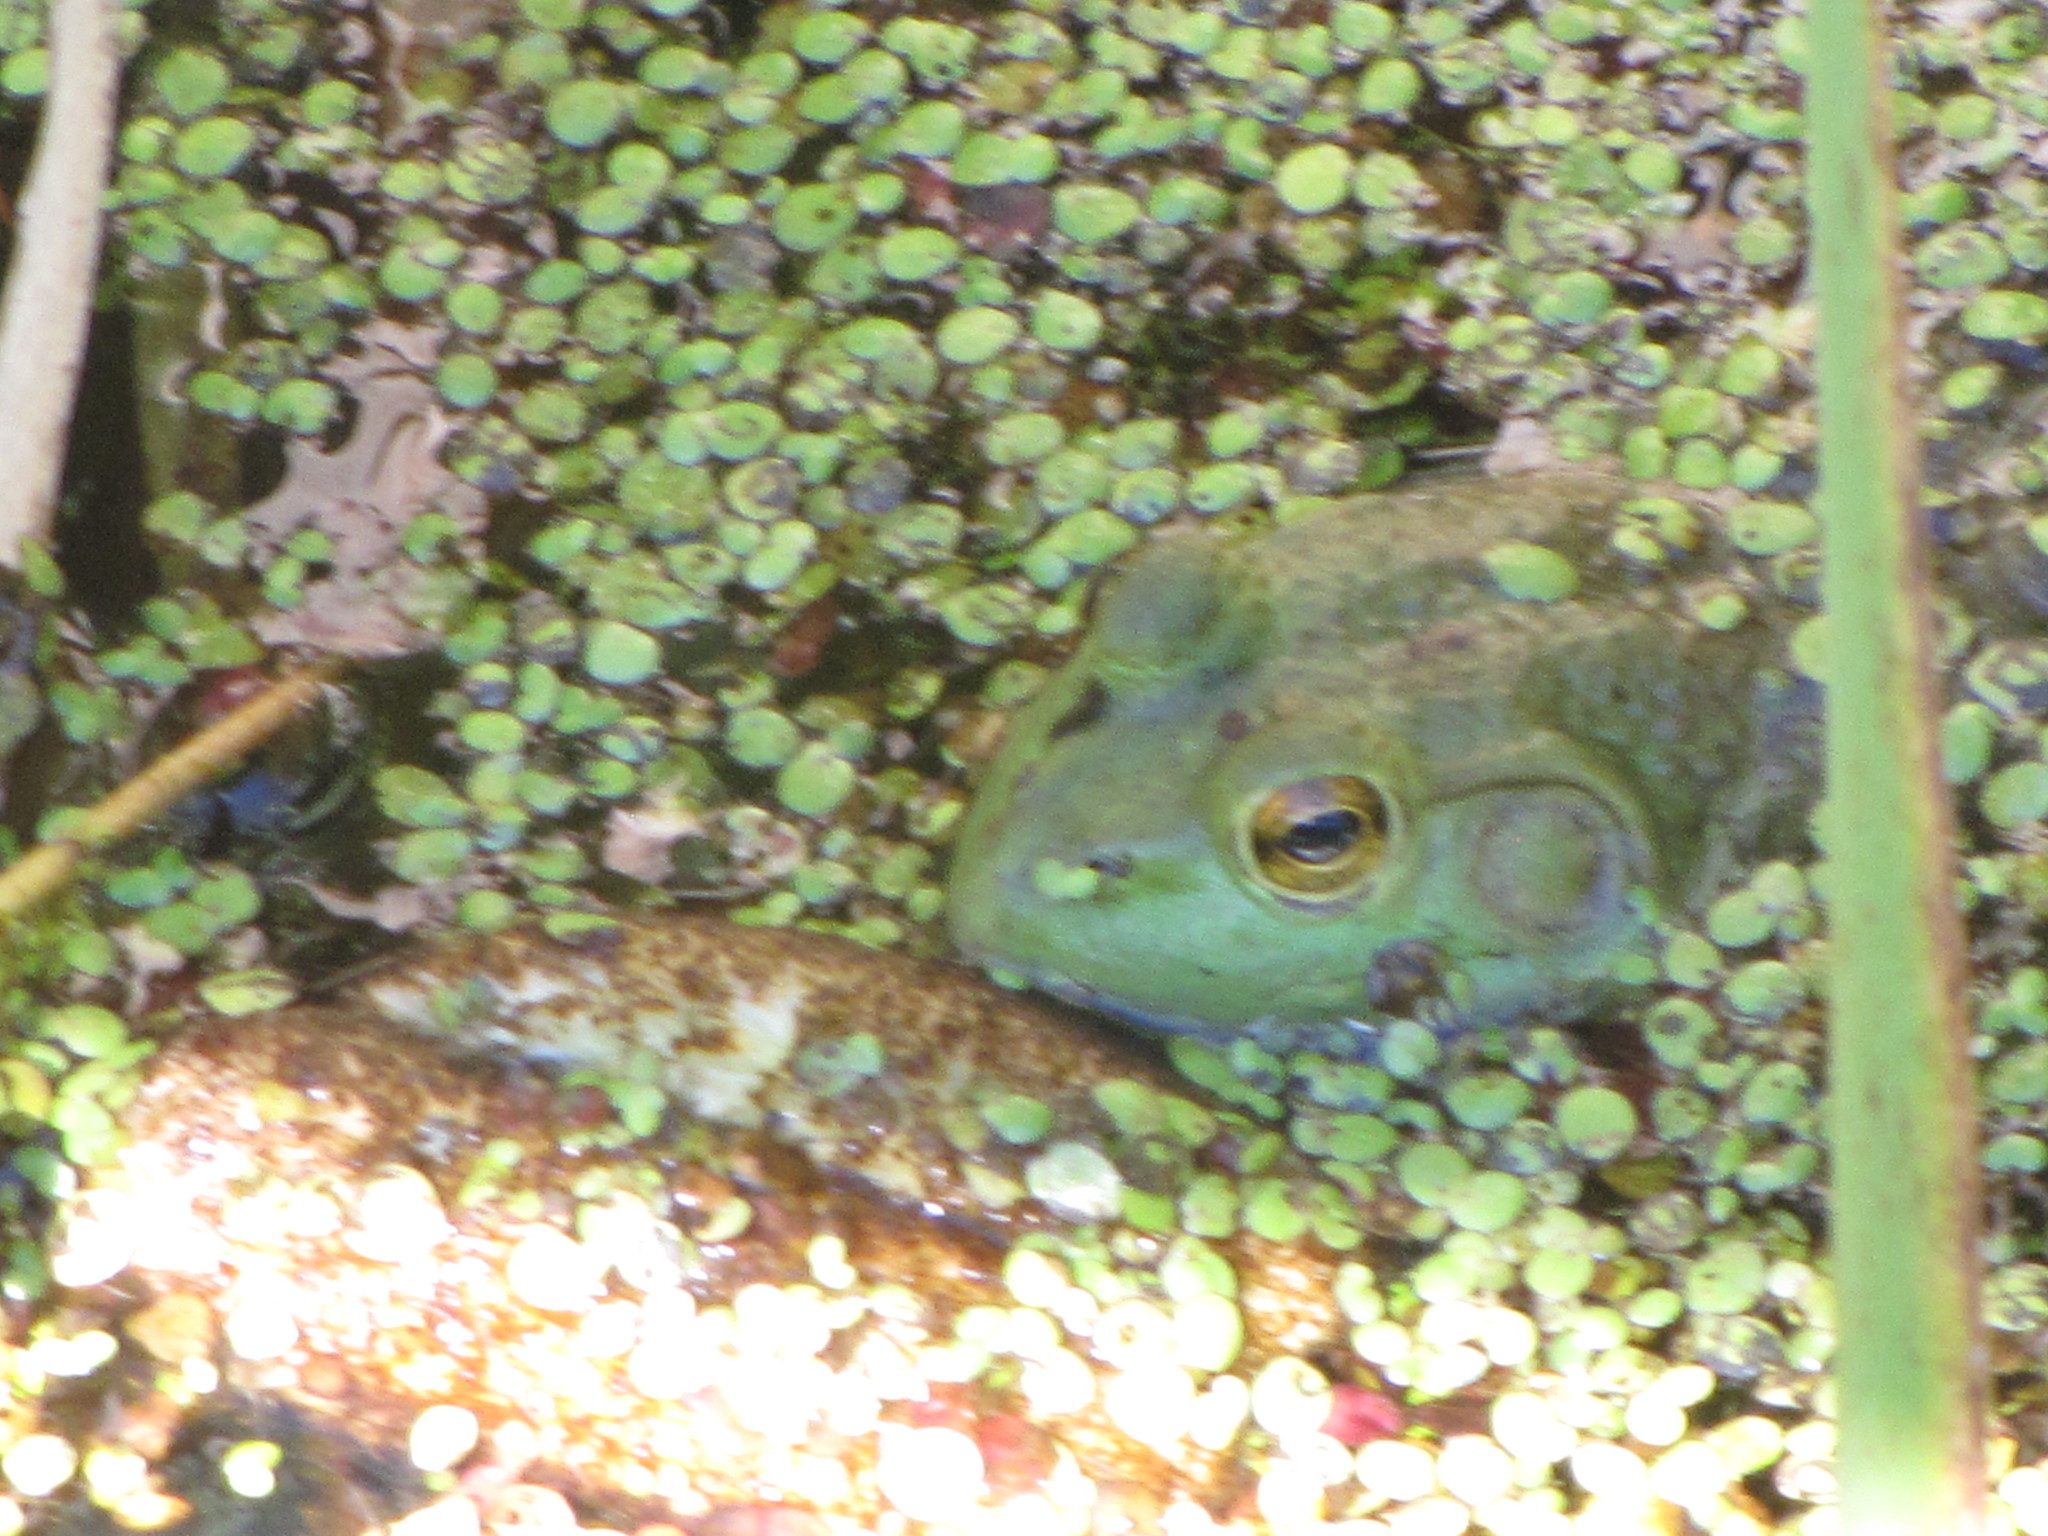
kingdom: Animalia
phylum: Chordata
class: Amphibia
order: Anura
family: Ranidae
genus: Lithobates
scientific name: Lithobates catesbeianus
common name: American bullfrog
